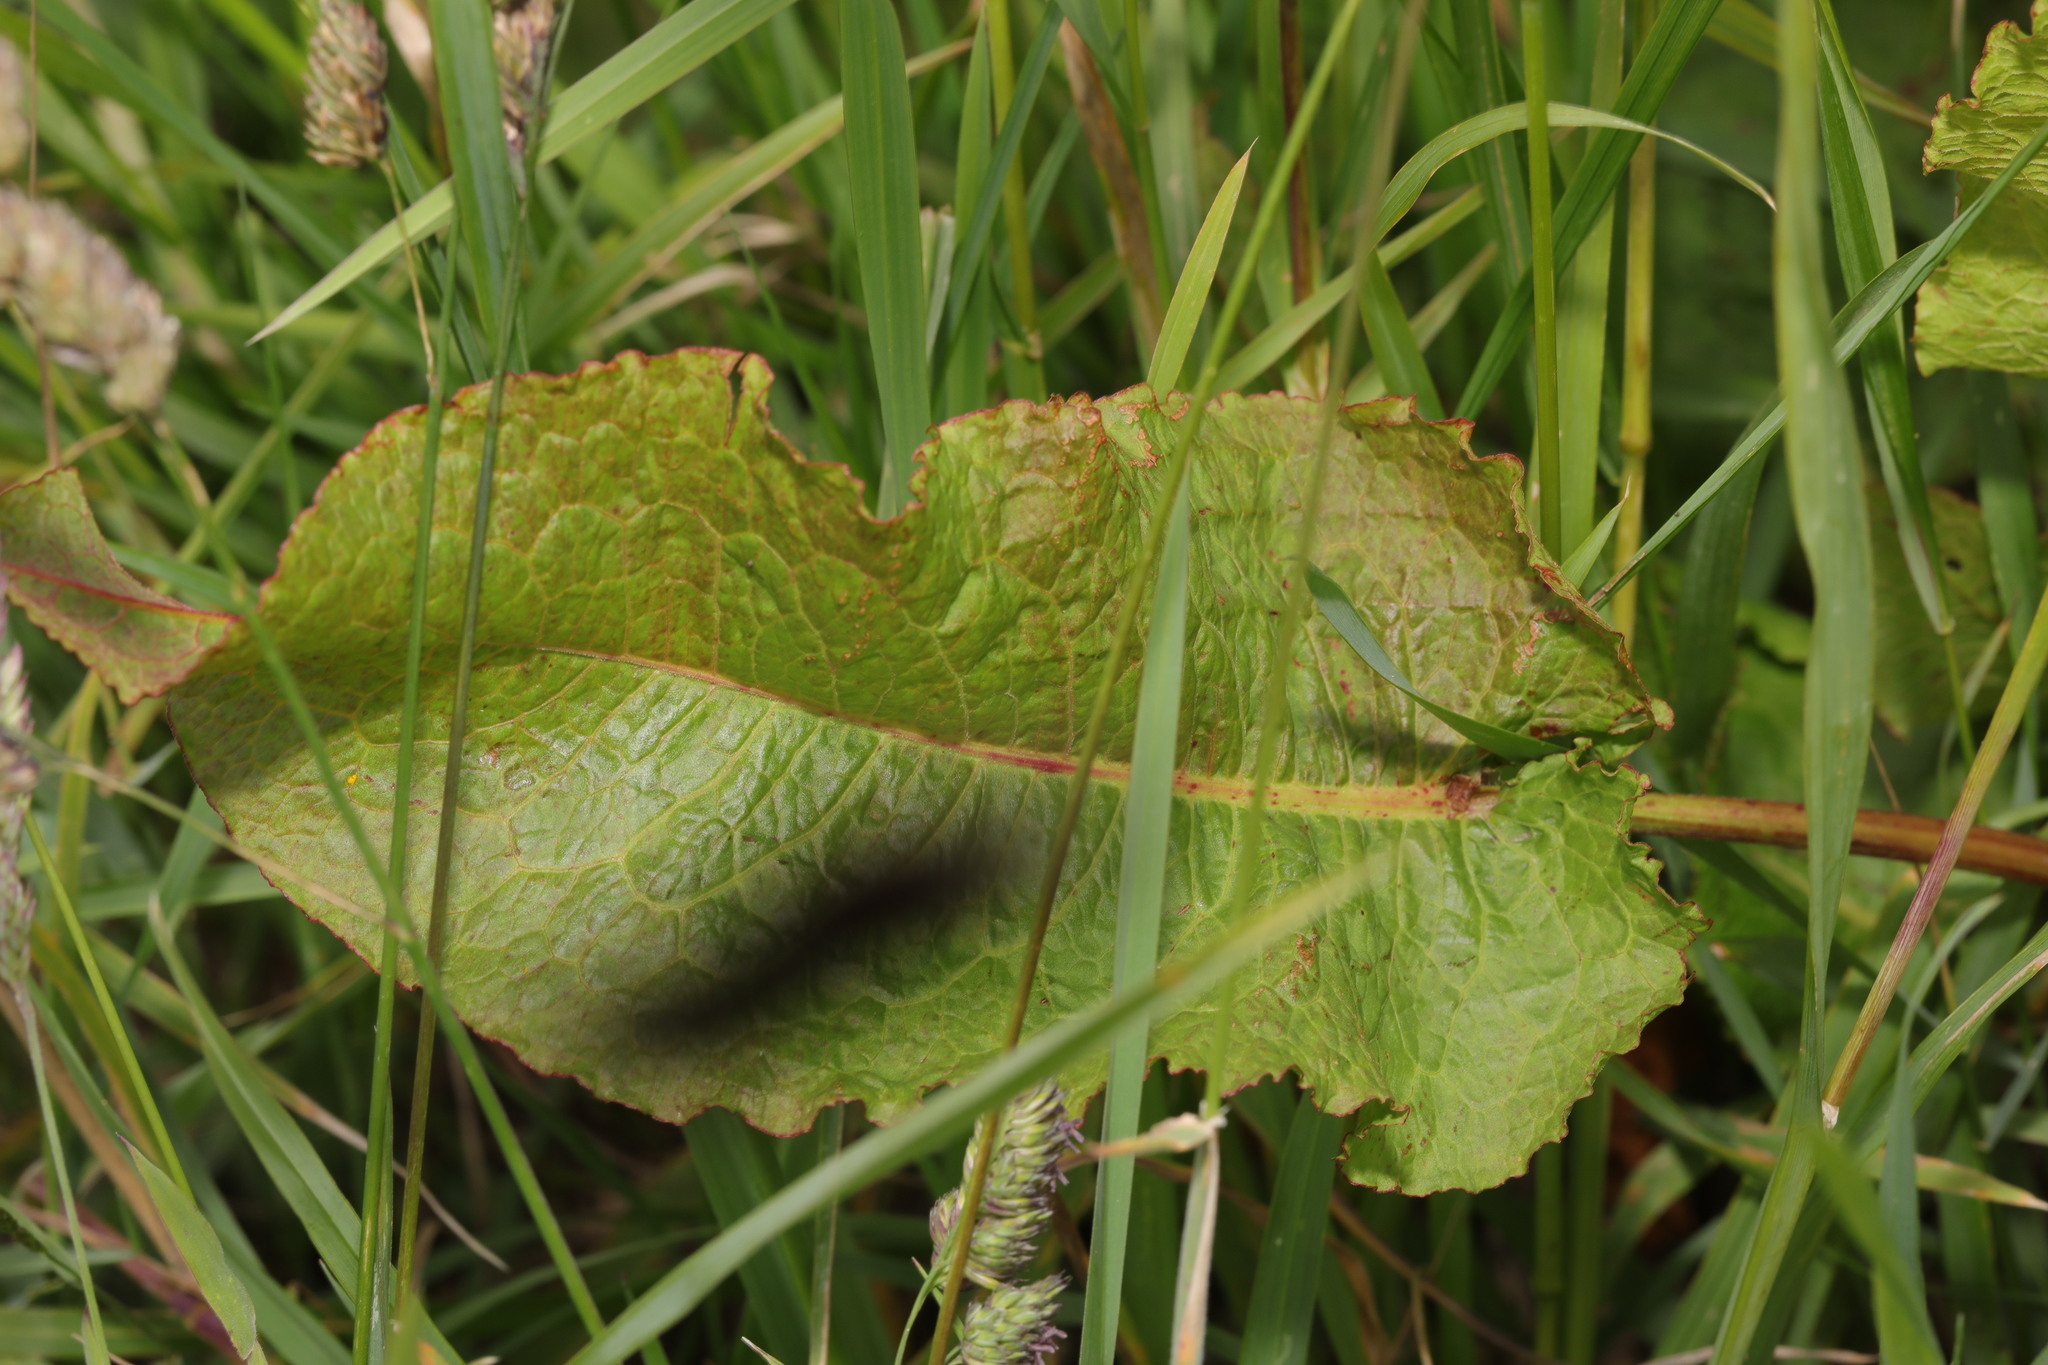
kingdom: Plantae
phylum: Tracheophyta
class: Magnoliopsida
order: Caryophyllales
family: Polygonaceae
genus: Rumex
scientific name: Rumex obtusifolius
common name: Bitter dock
